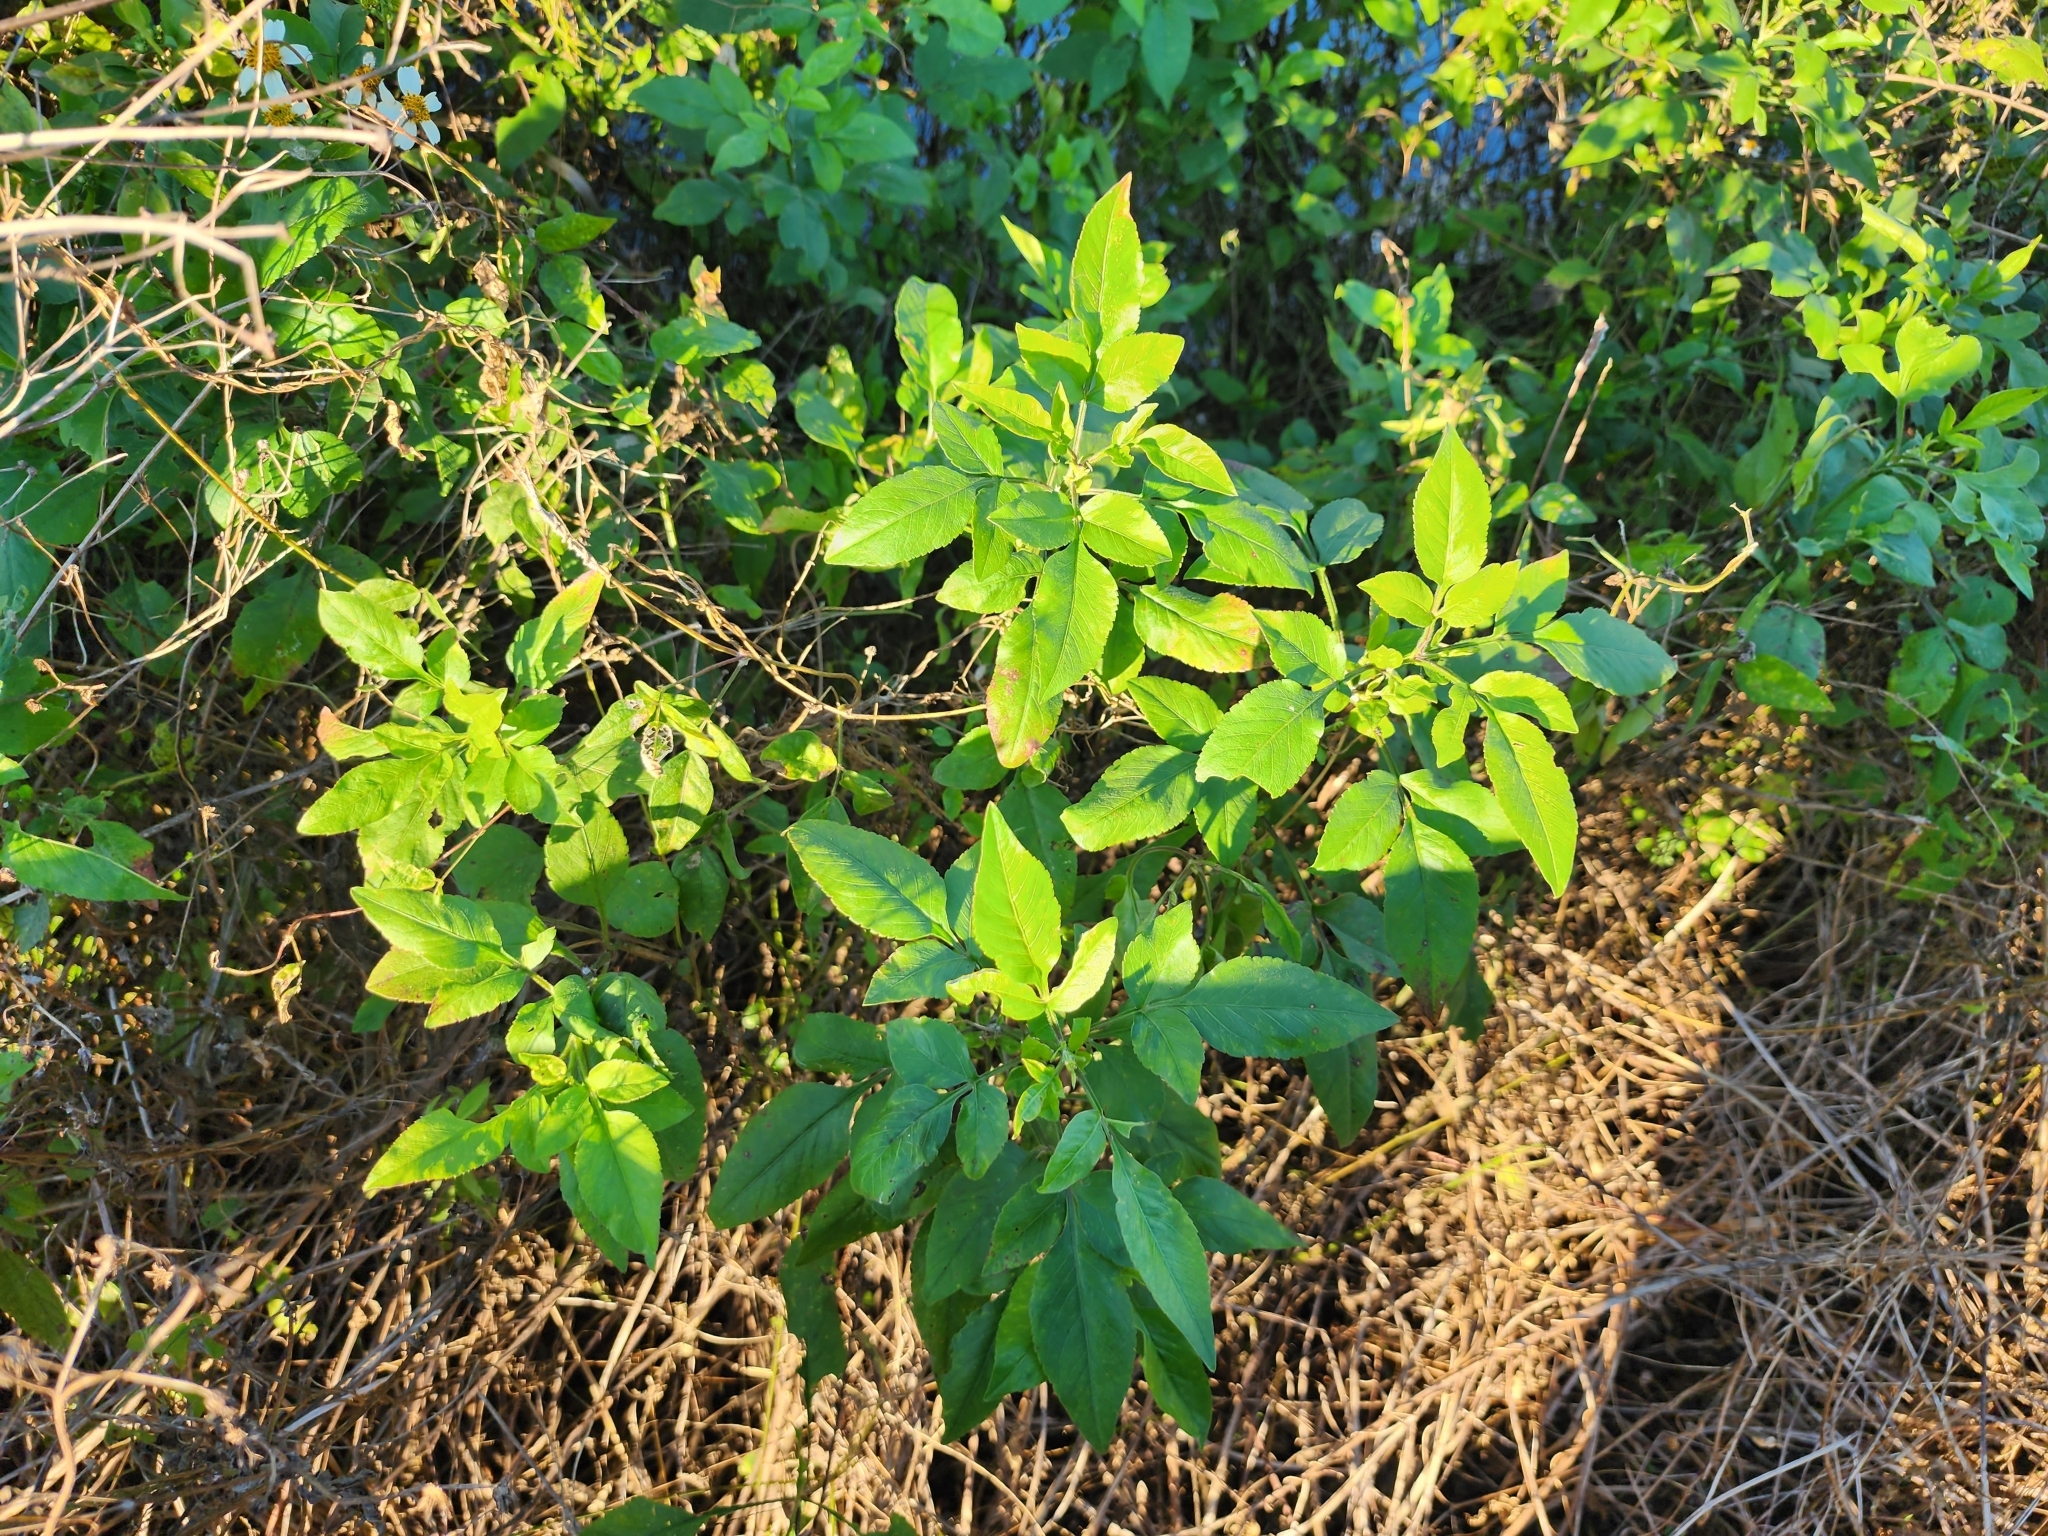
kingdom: Plantae
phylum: Tracheophyta
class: Magnoliopsida
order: Asterales
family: Asteraceae
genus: Bidens
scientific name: Bidens alba
